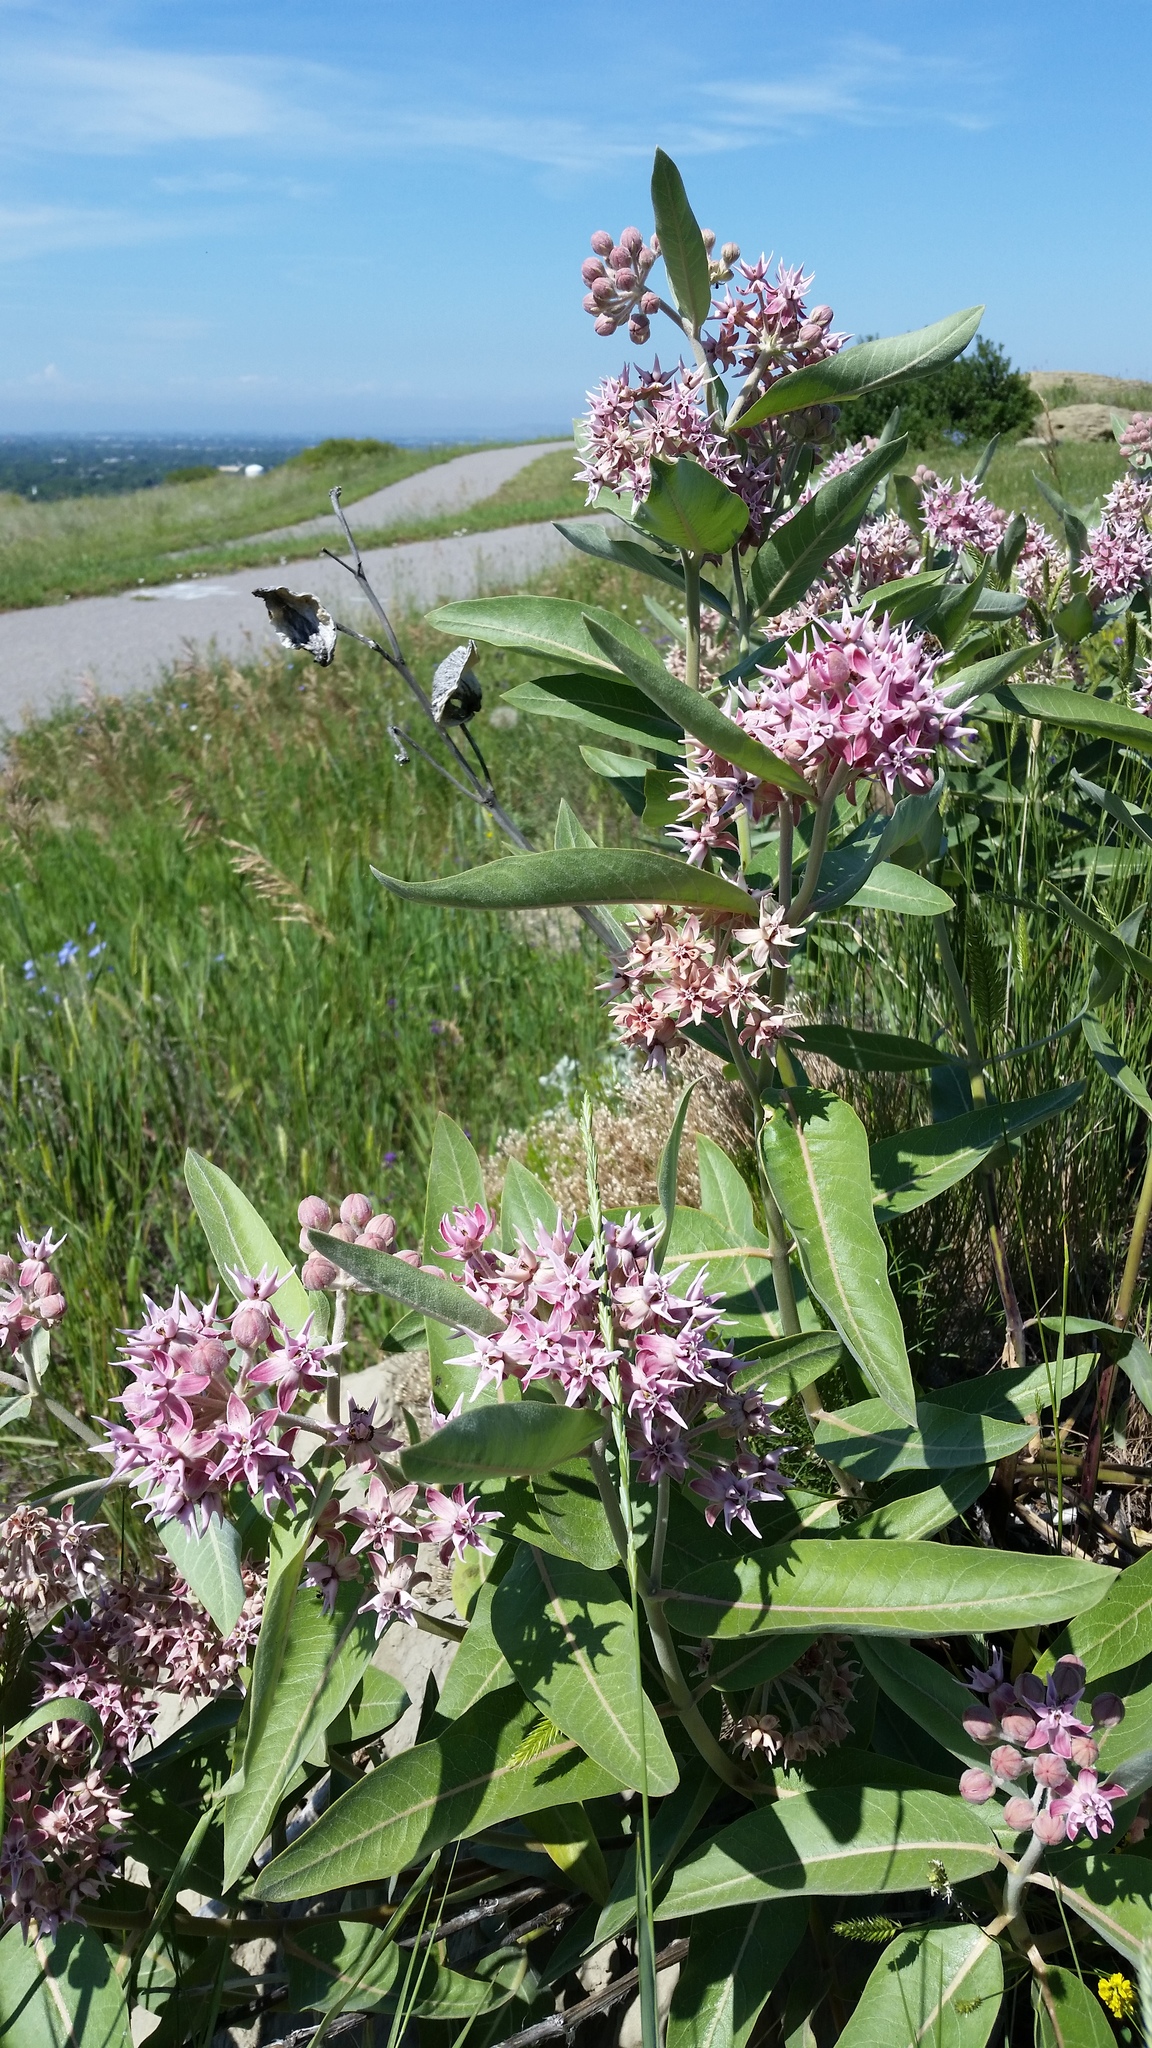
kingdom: Plantae
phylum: Tracheophyta
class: Magnoliopsida
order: Gentianales
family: Apocynaceae
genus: Asclepias
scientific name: Asclepias speciosa
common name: Showy milkweed
